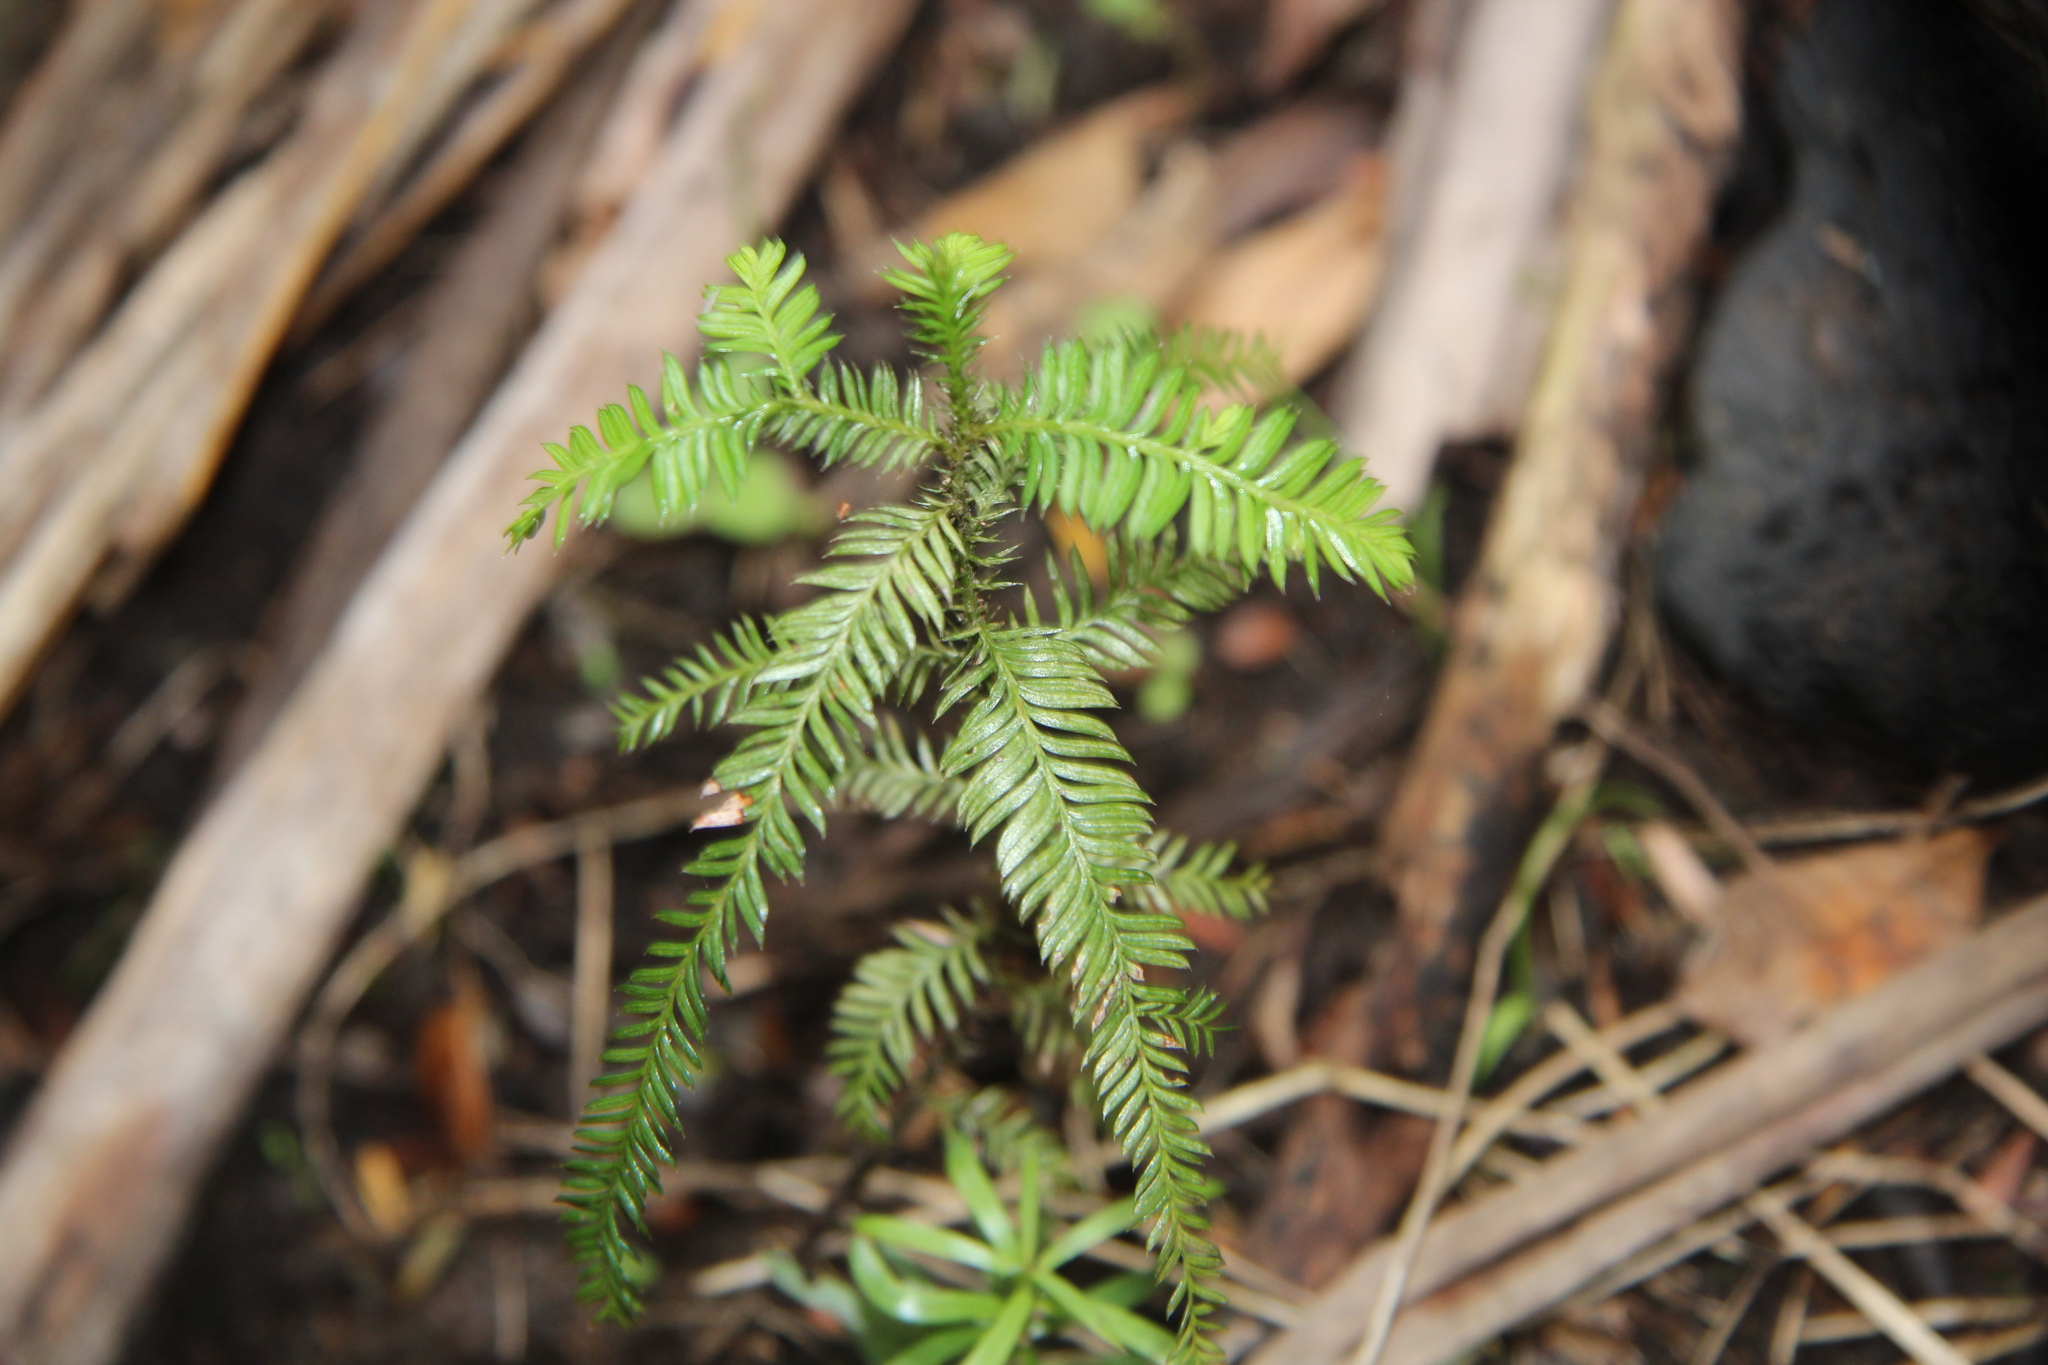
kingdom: Plantae
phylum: Tracheophyta
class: Pinopsida
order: Pinales
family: Podocarpaceae
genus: Dacrycarpus
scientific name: Dacrycarpus dacrydioides
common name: White pine
